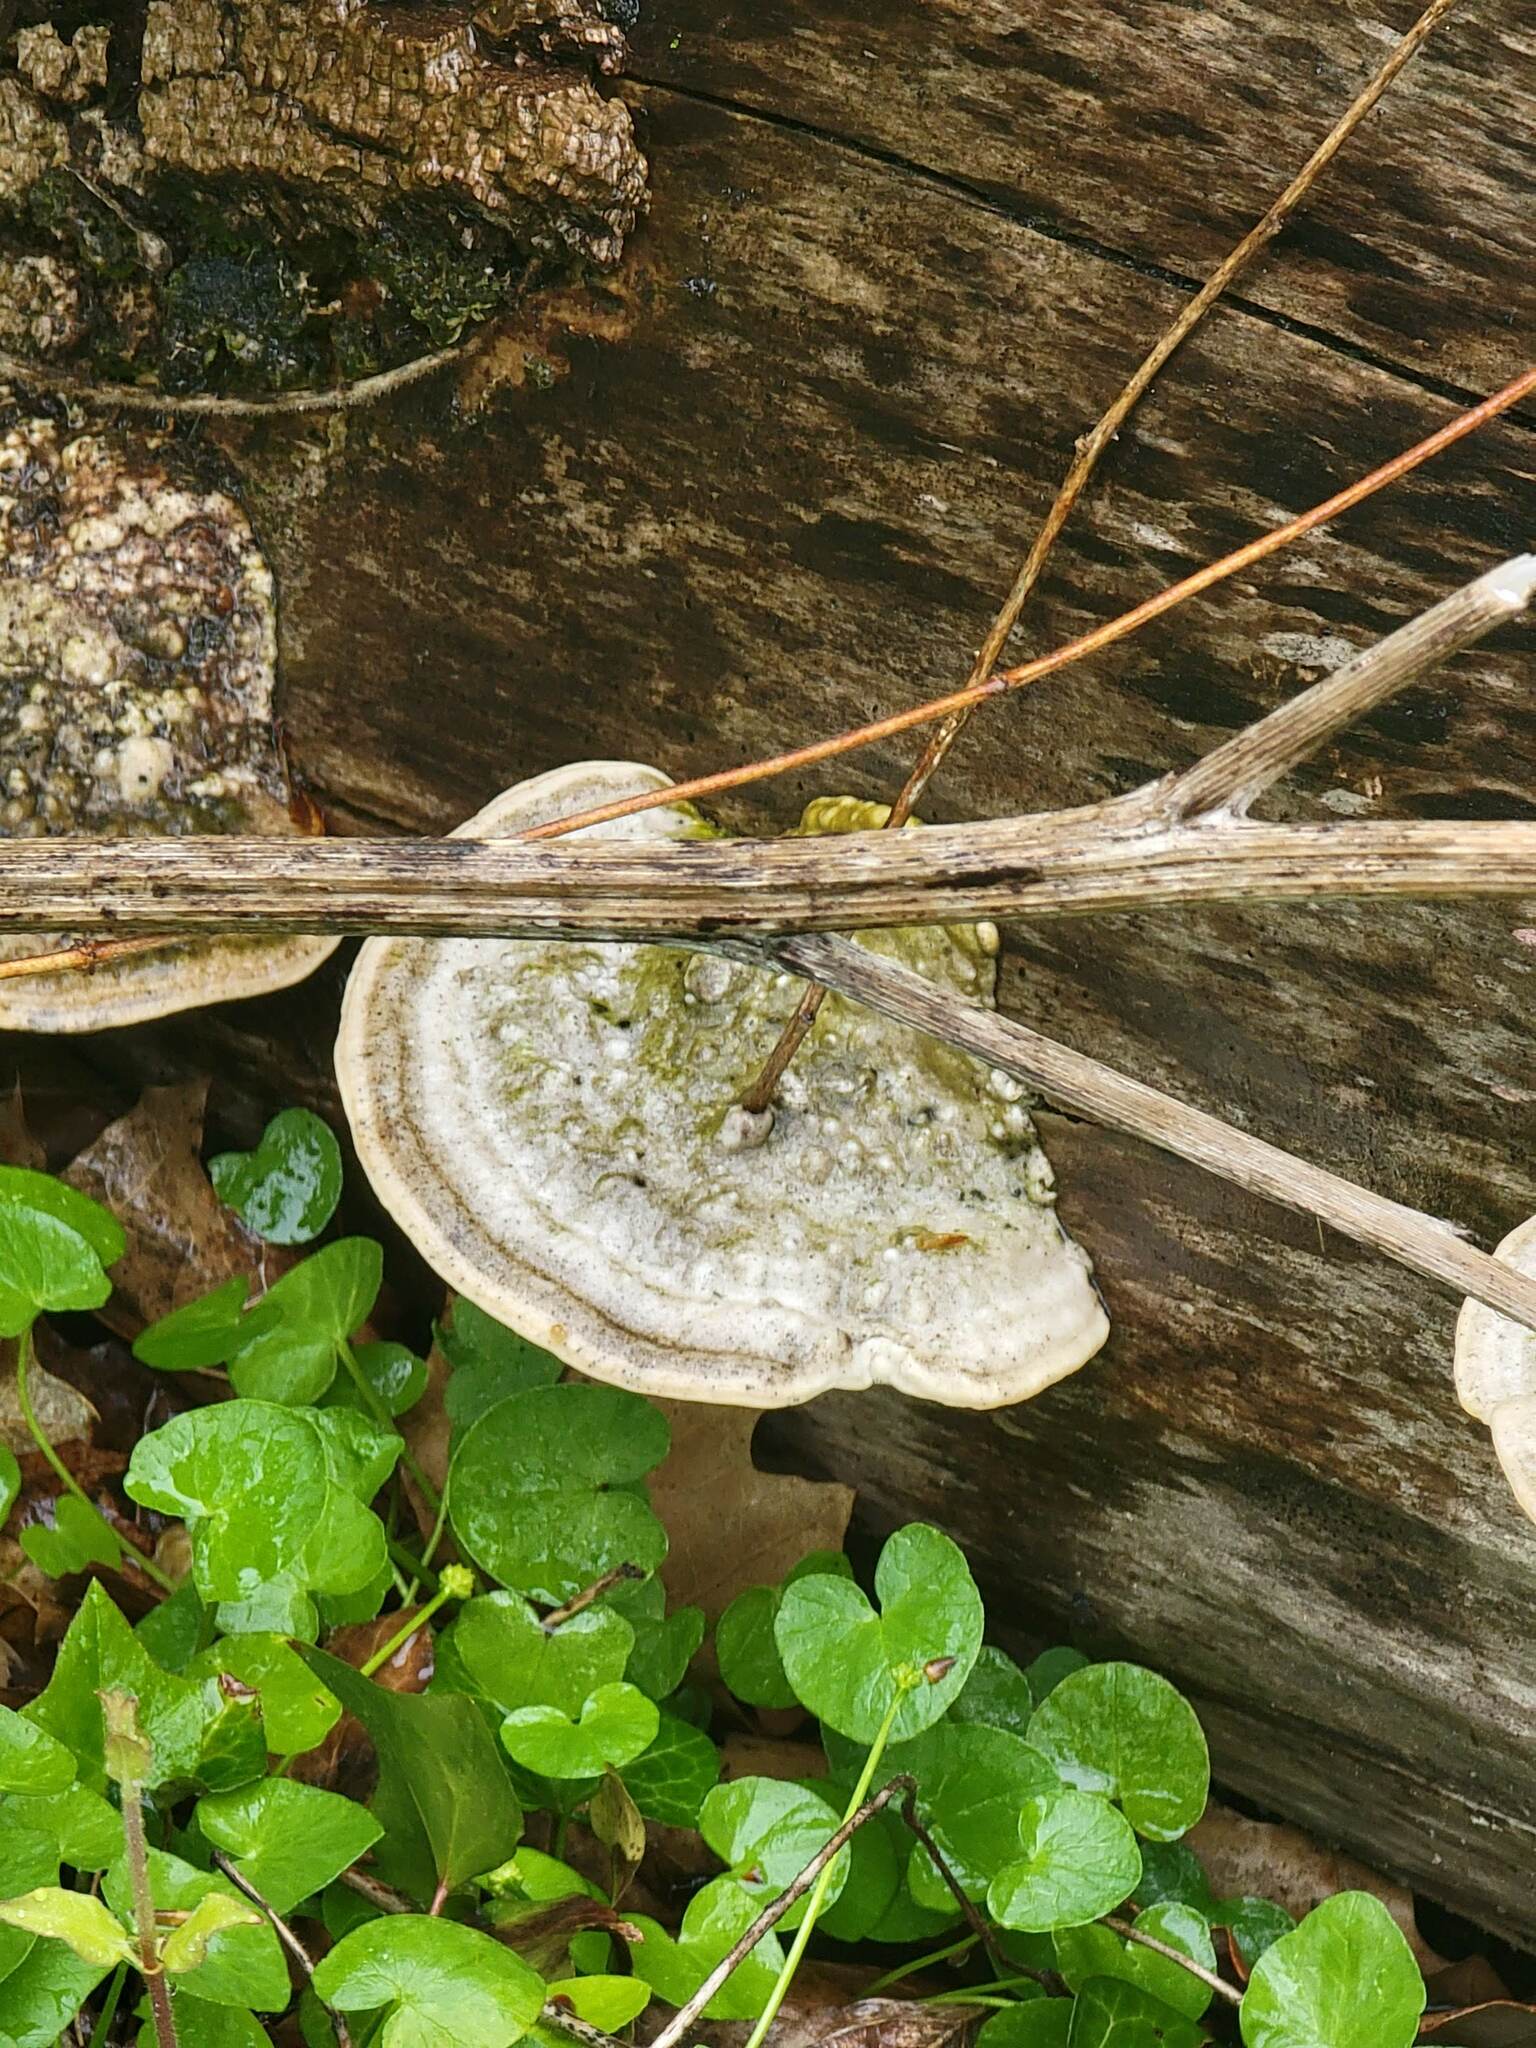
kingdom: Fungi
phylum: Basidiomycota
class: Agaricomycetes
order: Polyporales
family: Polyporaceae
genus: Trametes
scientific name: Trametes gibbosa
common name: Lumpy bracket
